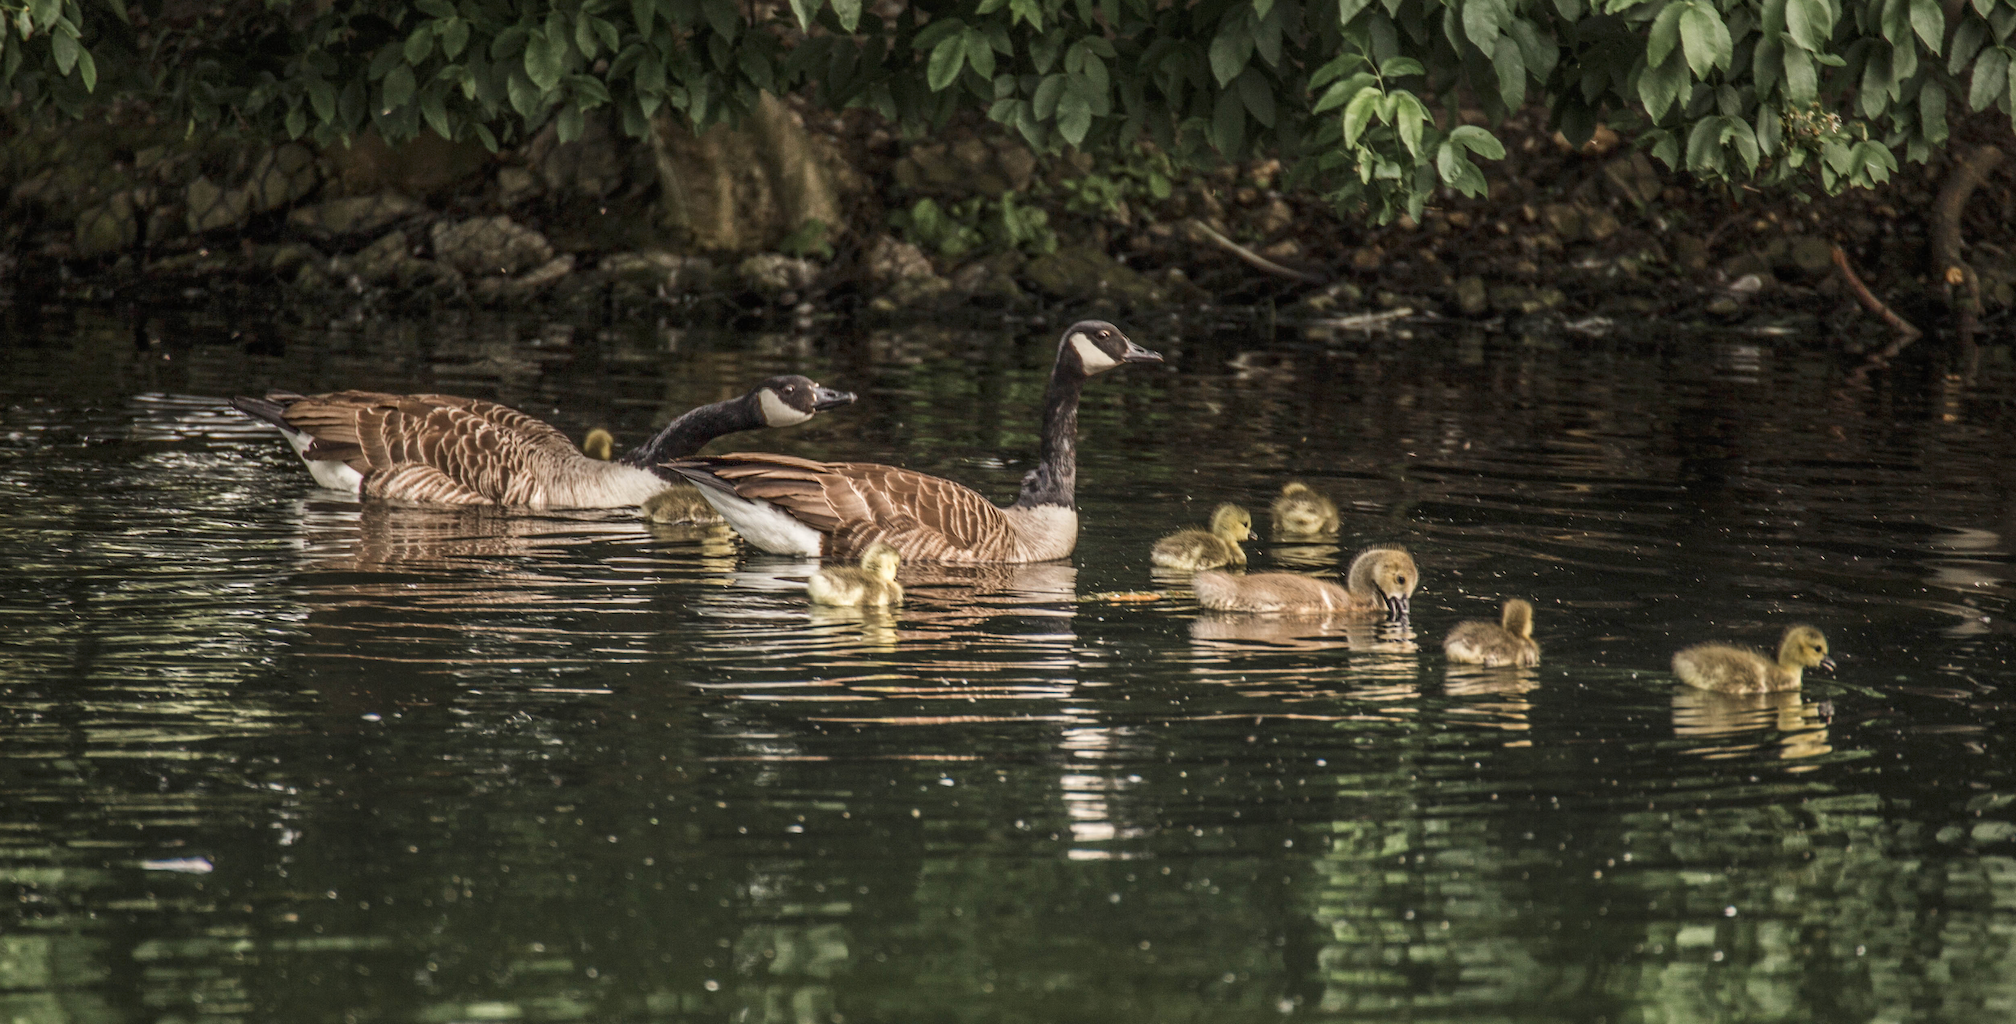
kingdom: Animalia
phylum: Chordata
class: Aves
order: Anseriformes
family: Anatidae
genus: Branta
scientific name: Branta canadensis
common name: Canada goose
